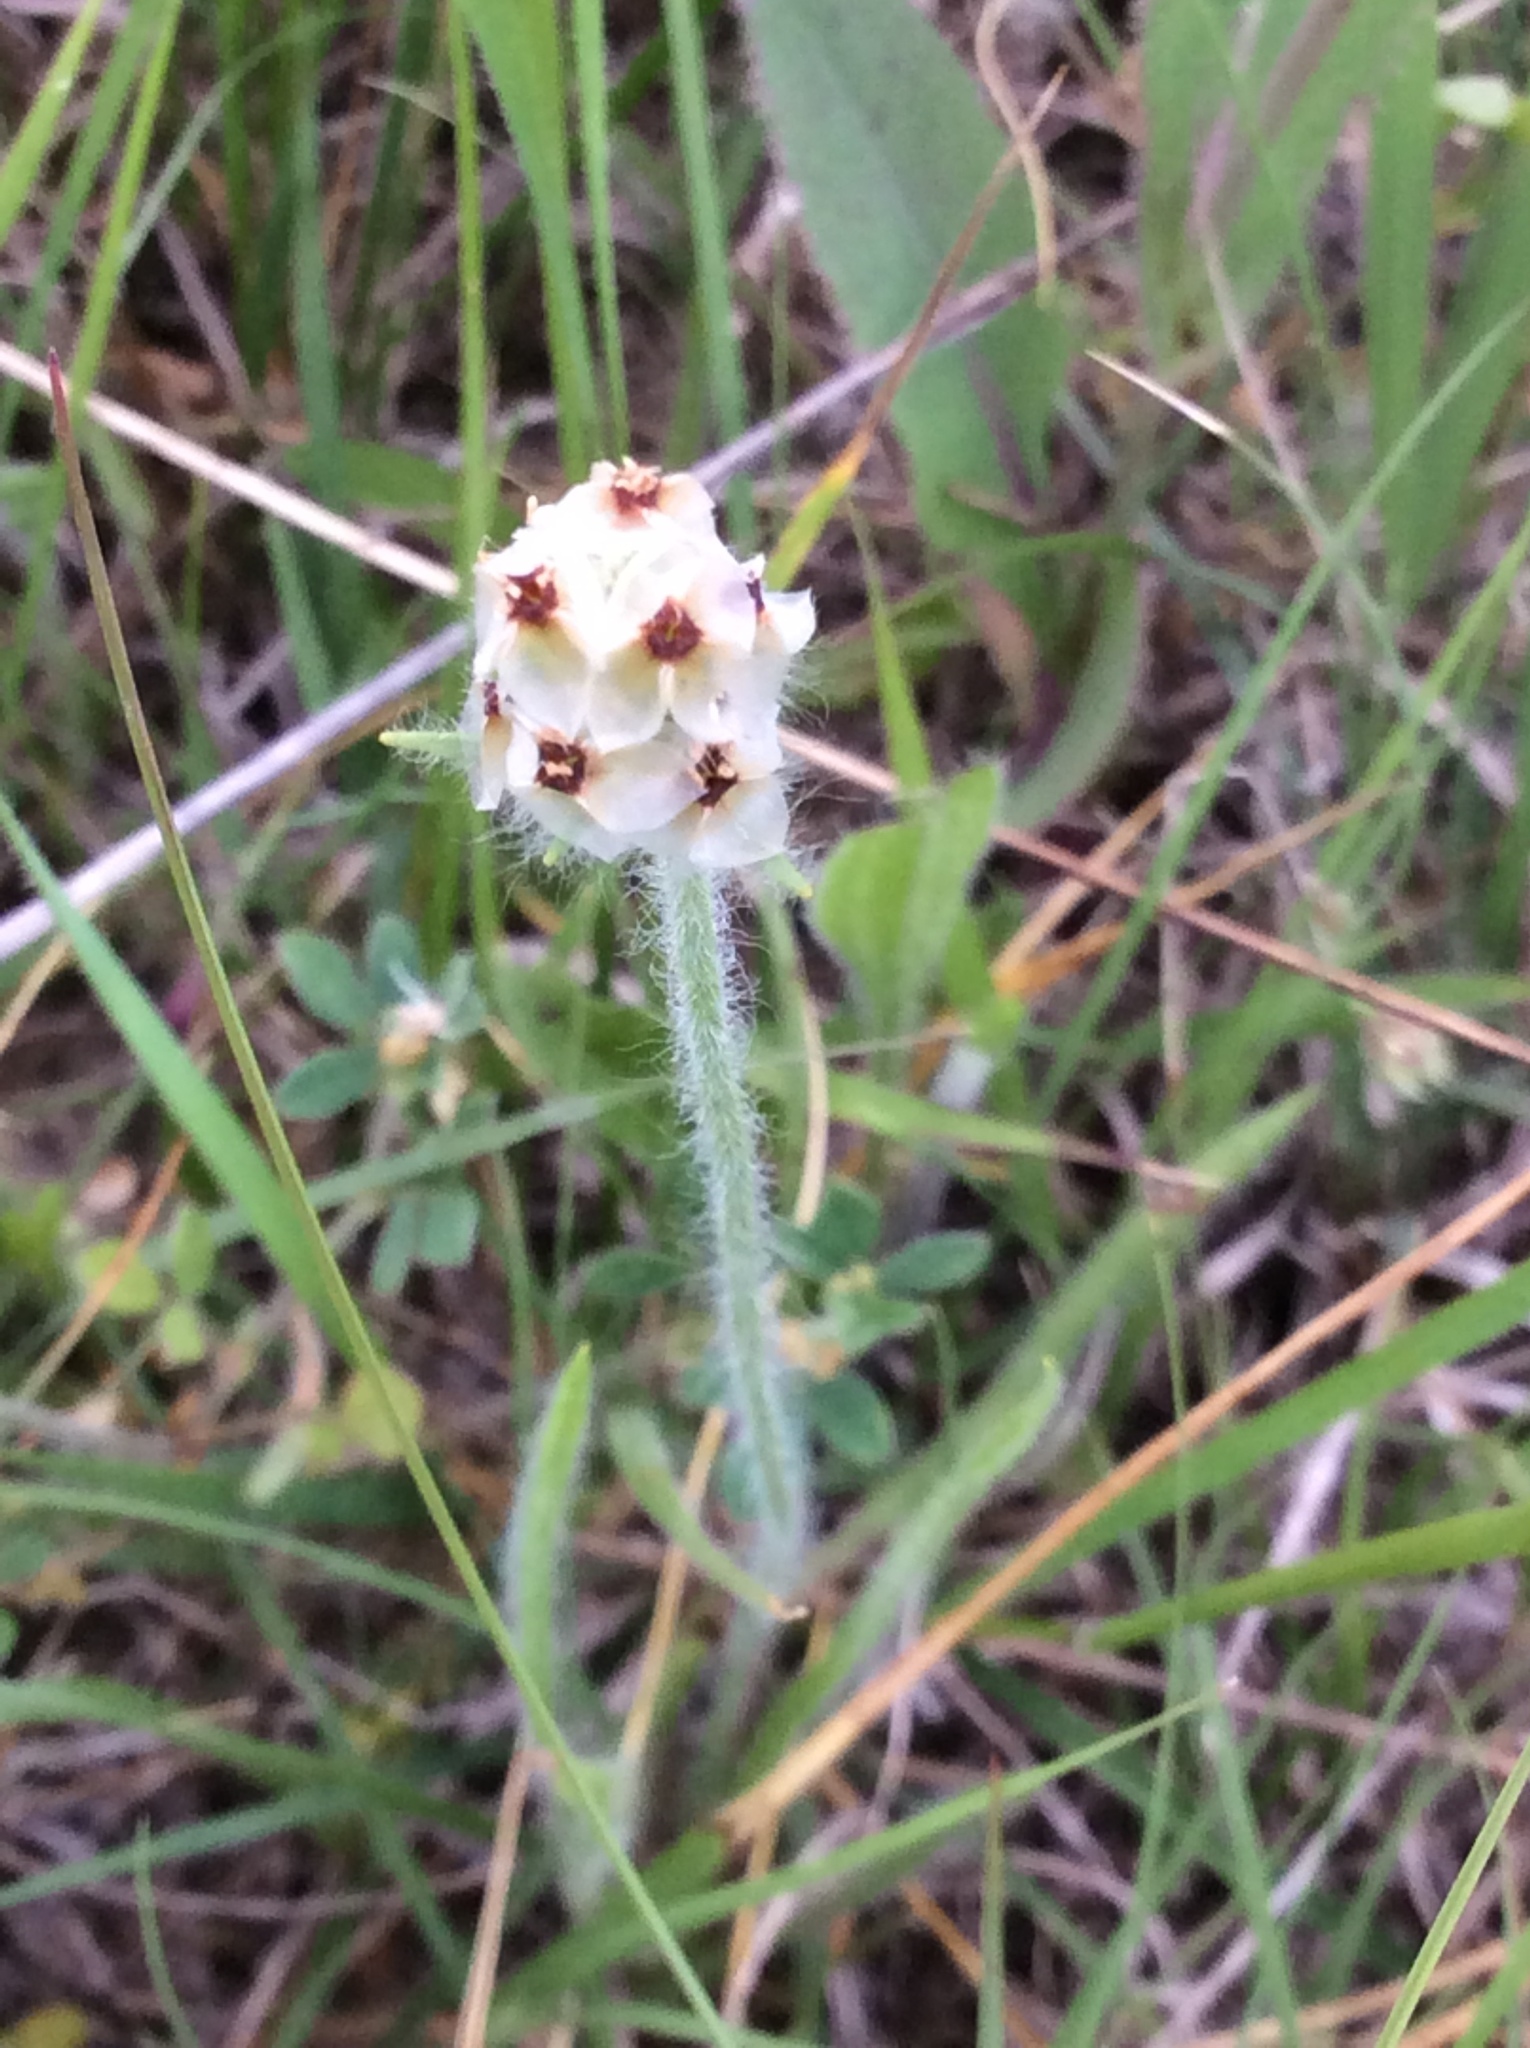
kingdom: Plantae
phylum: Tracheophyta
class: Magnoliopsida
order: Lamiales
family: Plantaginaceae
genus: Plantago
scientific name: Plantago helleri
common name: Heller's plantain
